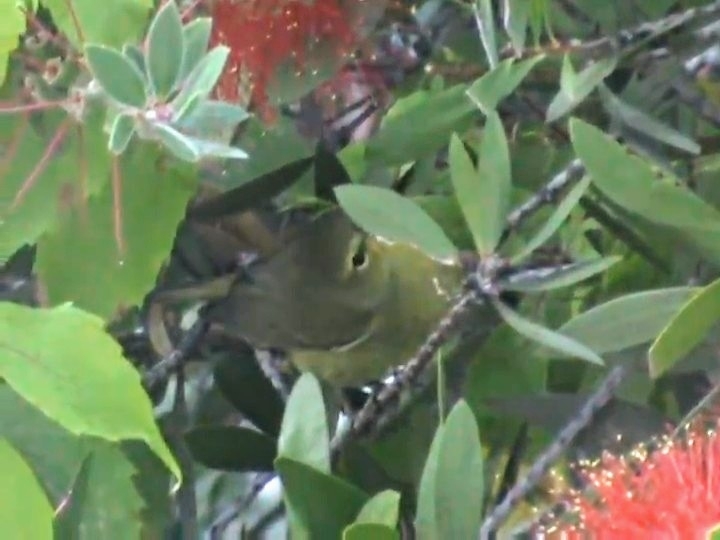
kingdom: Animalia
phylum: Chordata
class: Aves
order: Passeriformes
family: Parulidae
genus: Leiothlypis
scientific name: Leiothlypis celata
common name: Orange-crowned warbler
